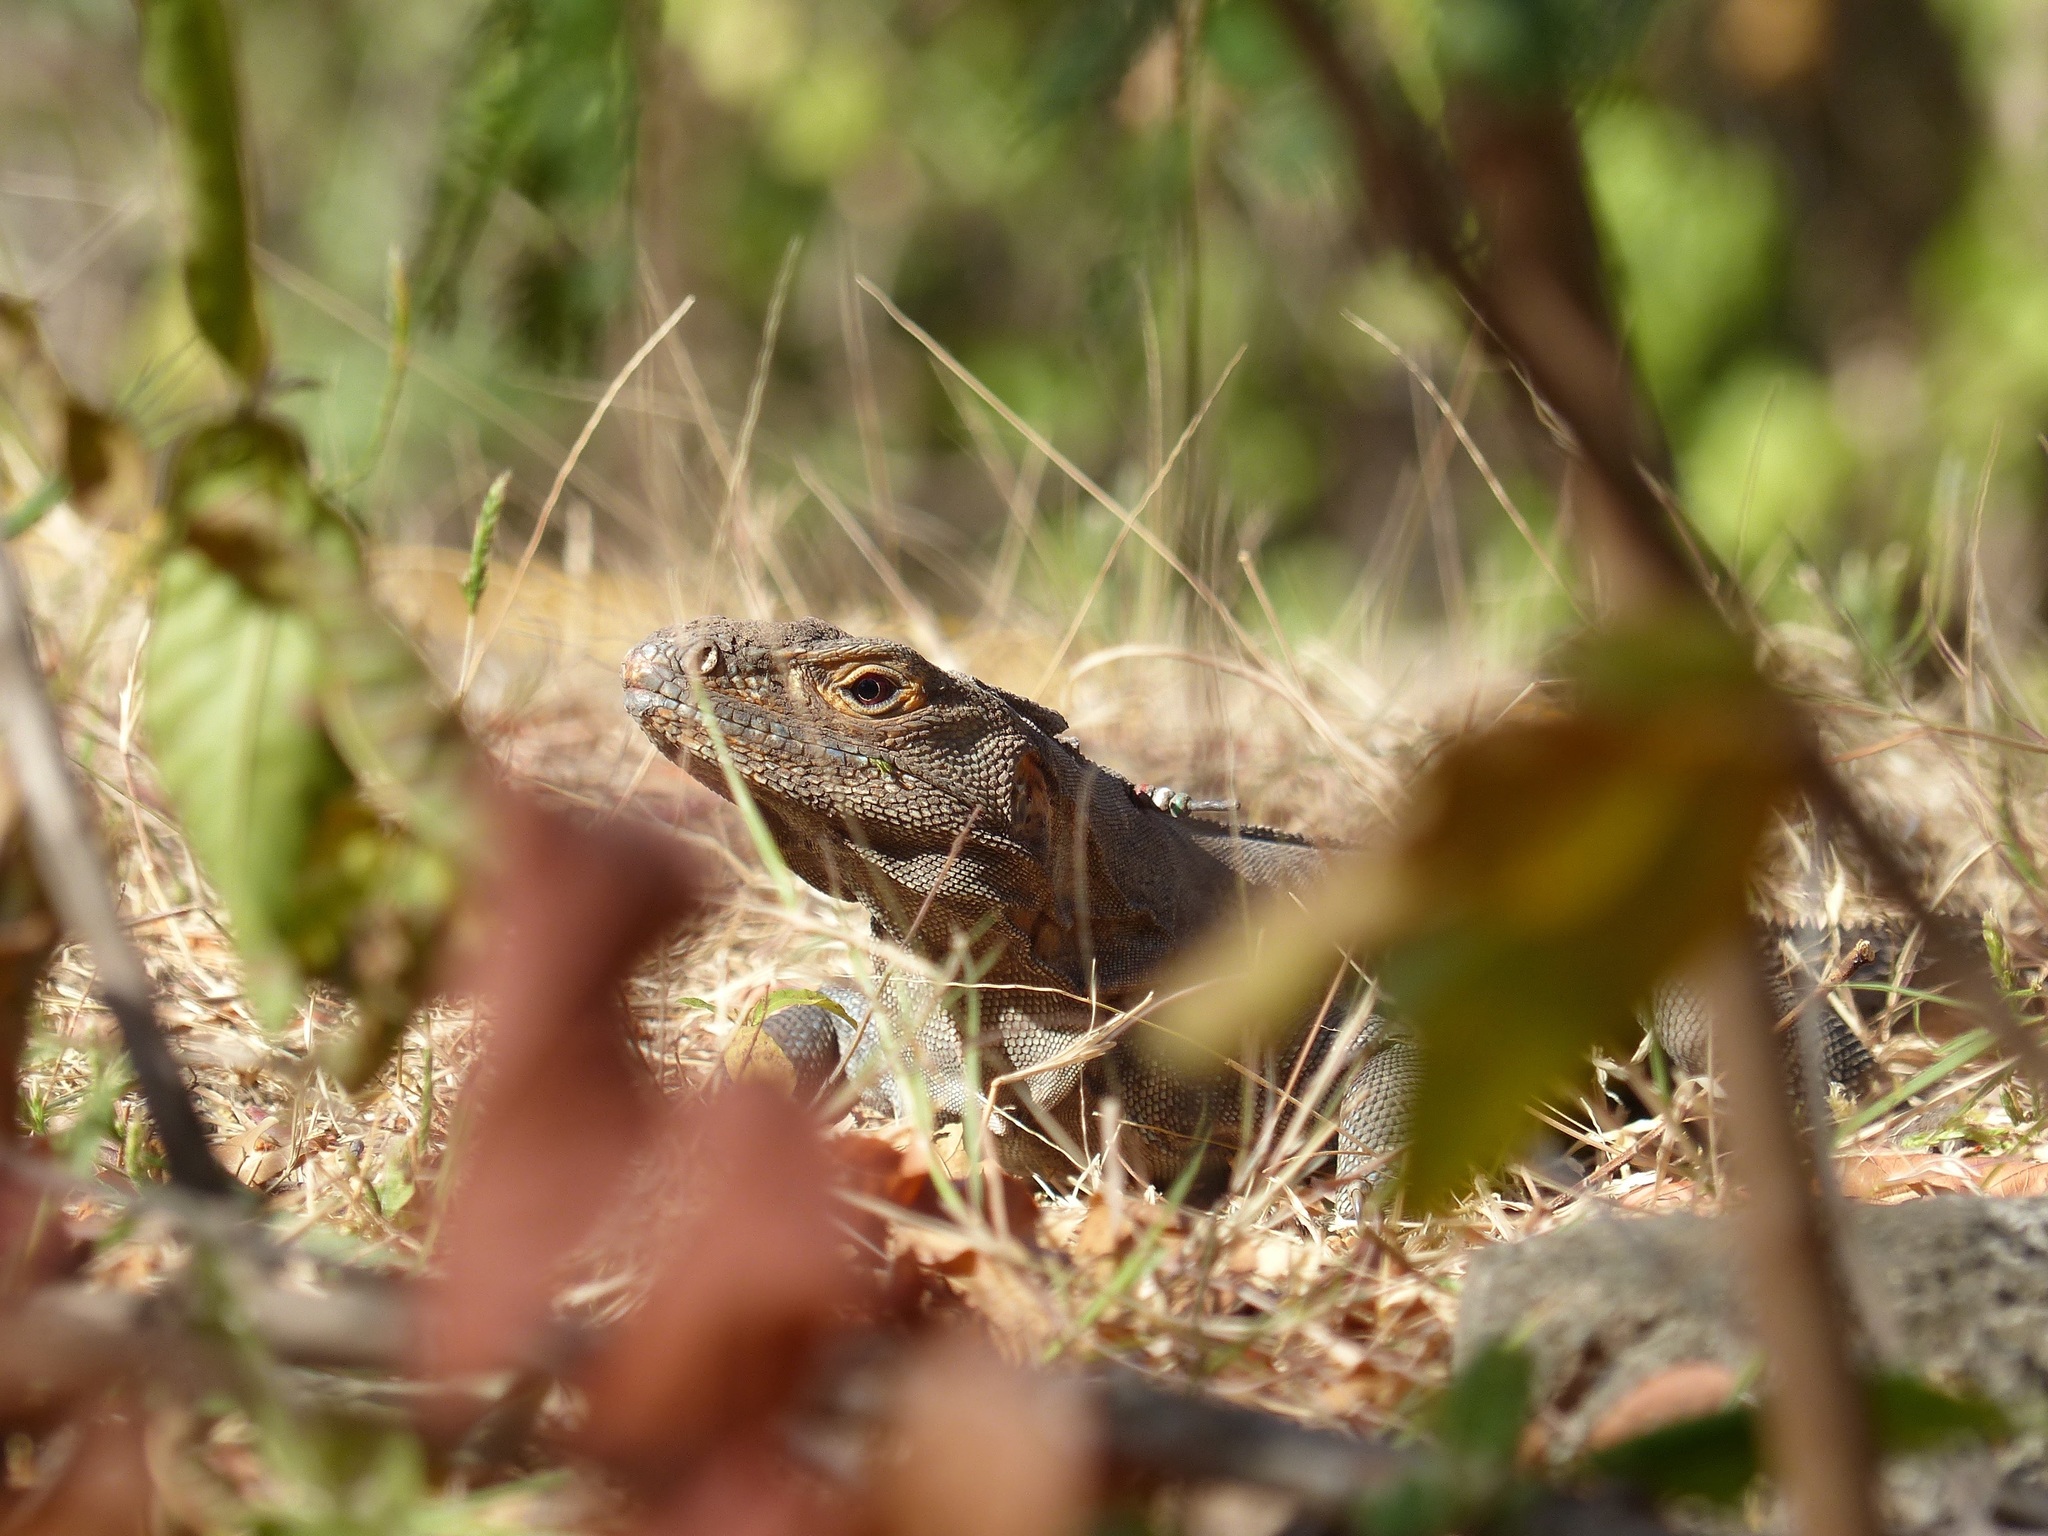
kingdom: Animalia
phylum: Chordata
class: Squamata
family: Iguanidae
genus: Ctenosaura
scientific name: Ctenosaura similis
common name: Black spiny-tailed iguana
